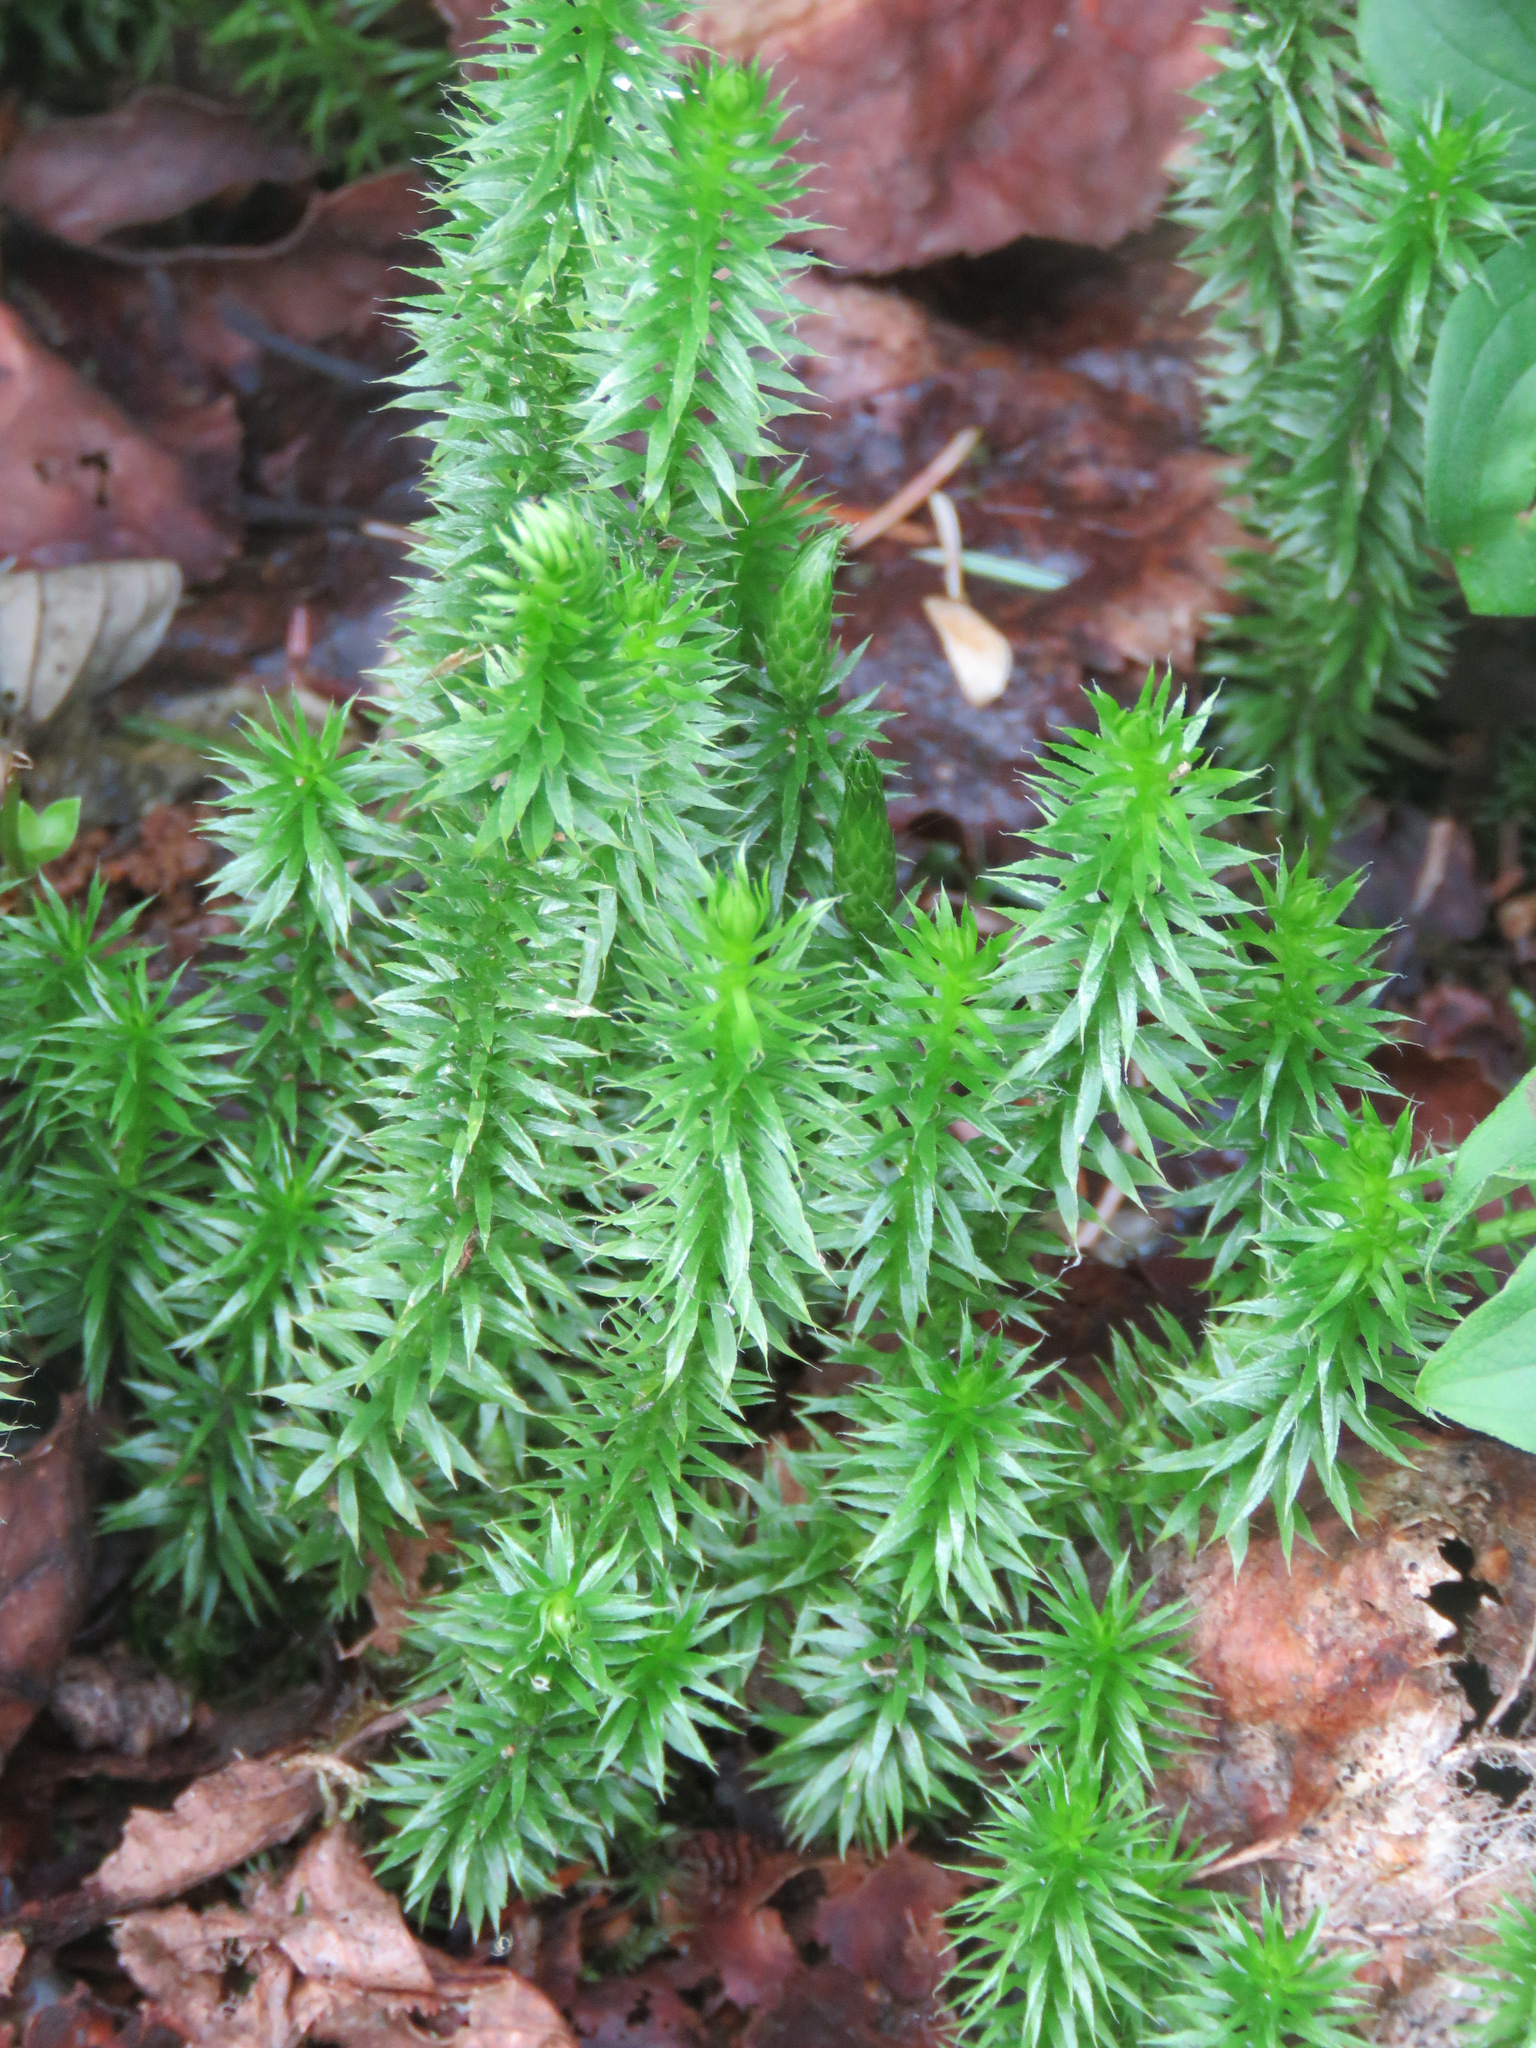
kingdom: Plantae
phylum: Tracheophyta
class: Lycopodiopsida
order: Lycopodiales
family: Lycopodiaceae
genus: Spinulum
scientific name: Spinulum annotinum
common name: Interrupted club-moss
